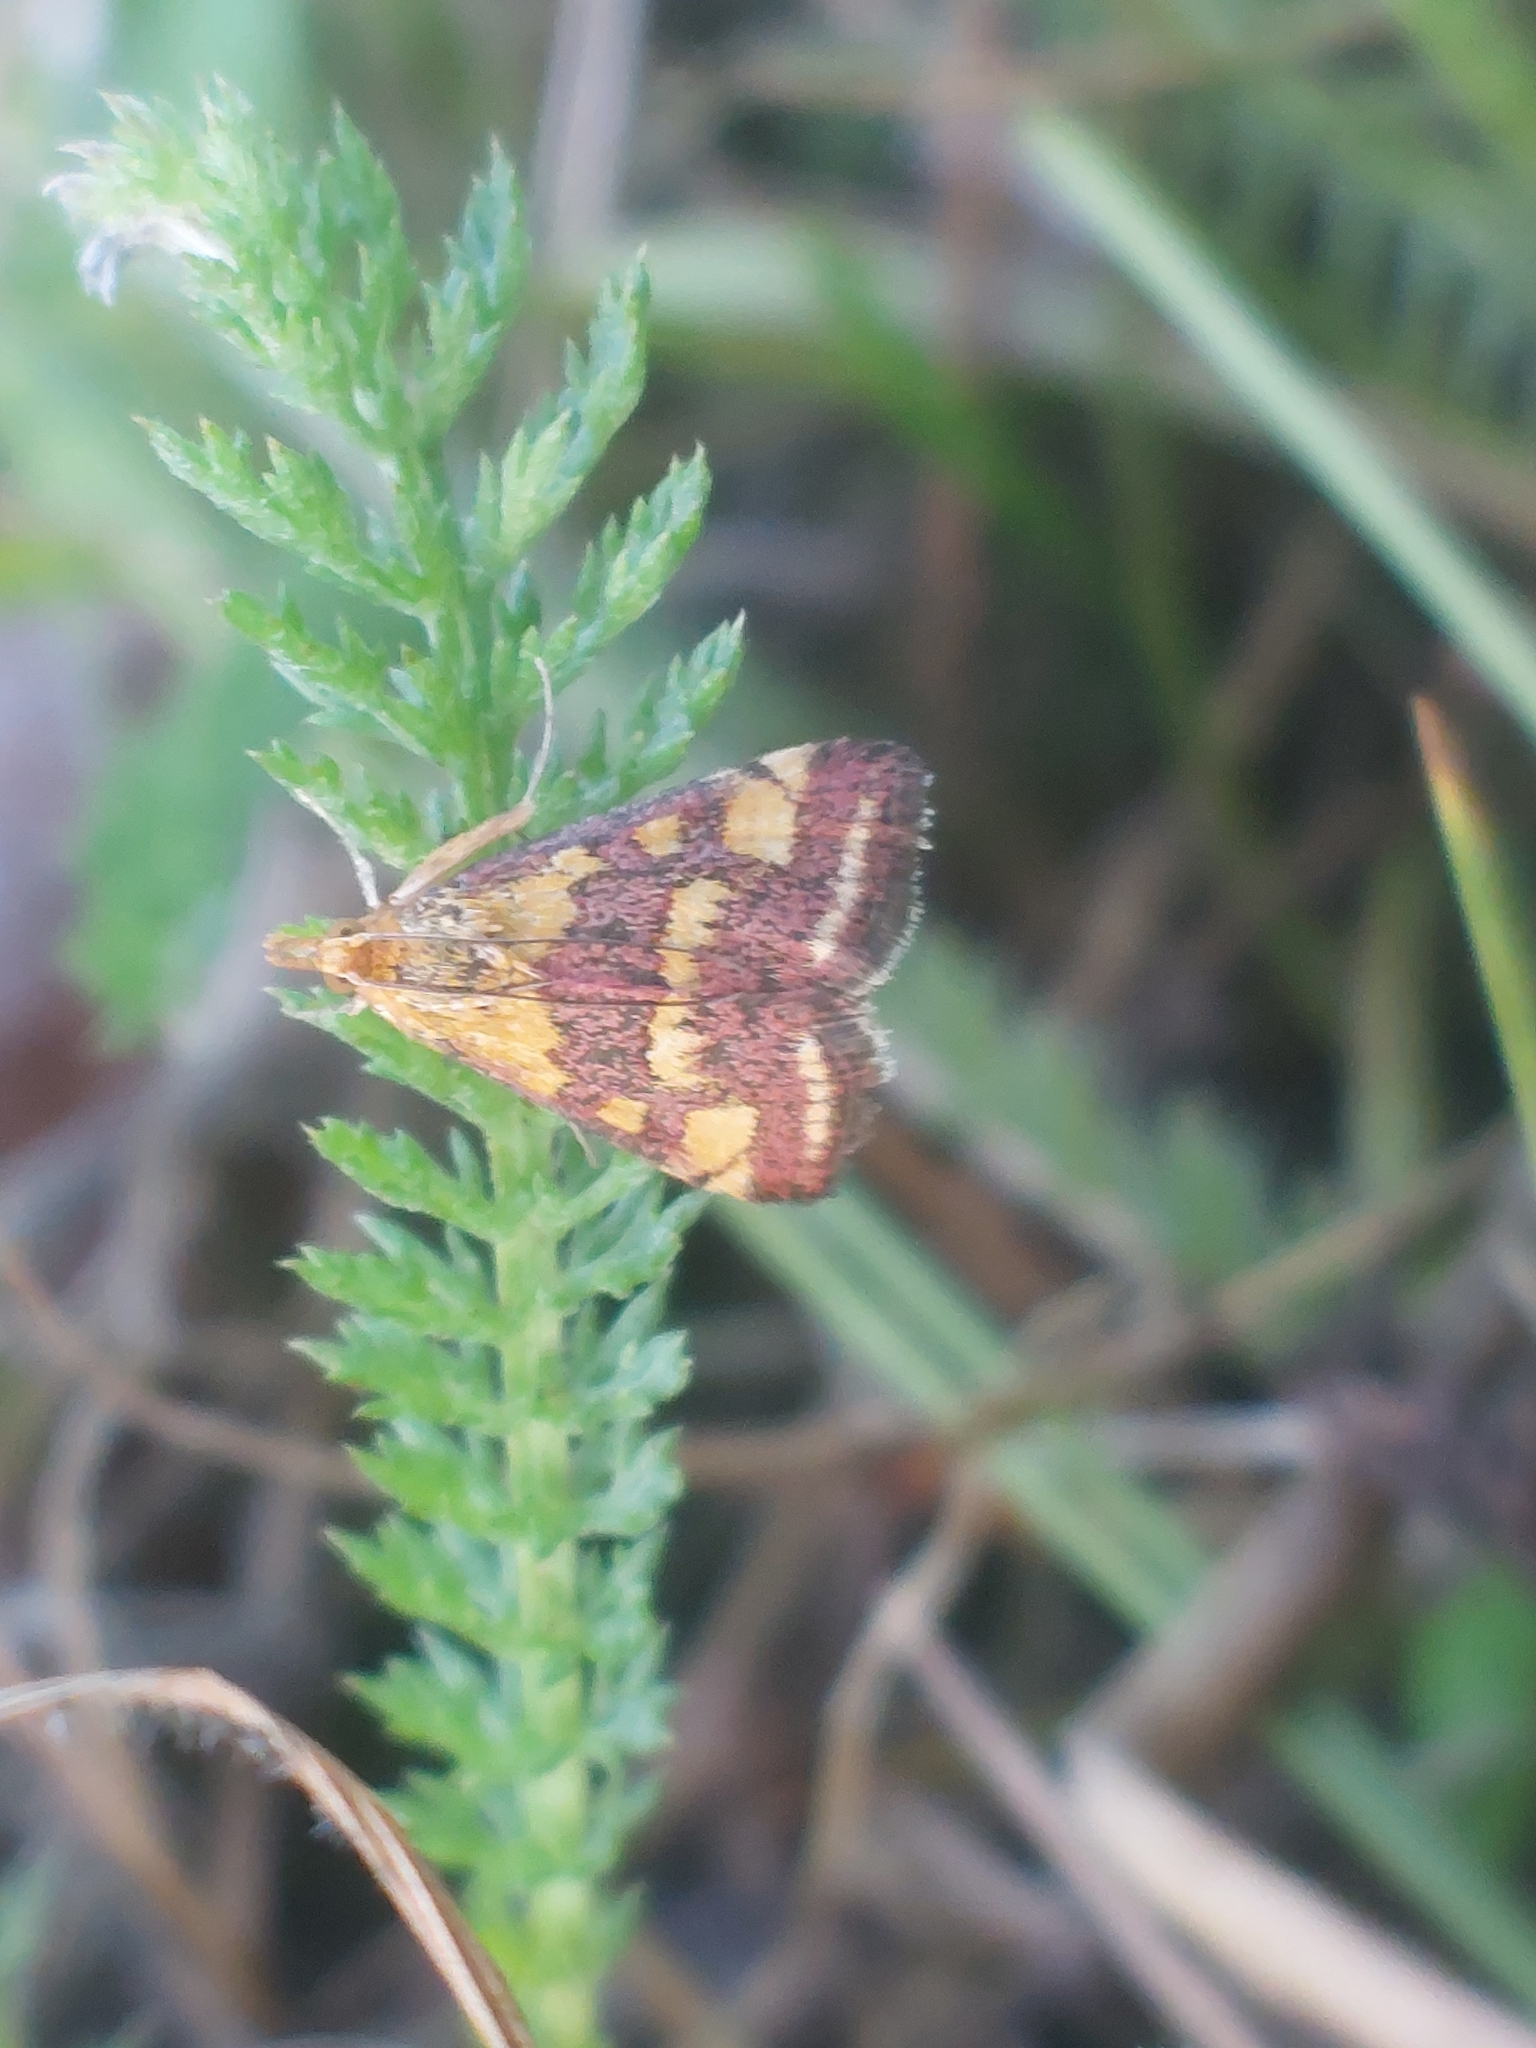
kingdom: Animalia
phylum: Arthropoda
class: Insecta
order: Lepidoptera
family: Crambidae
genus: Pyrausta
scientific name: Pyrausta purpuralis
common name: Common purple & gold
